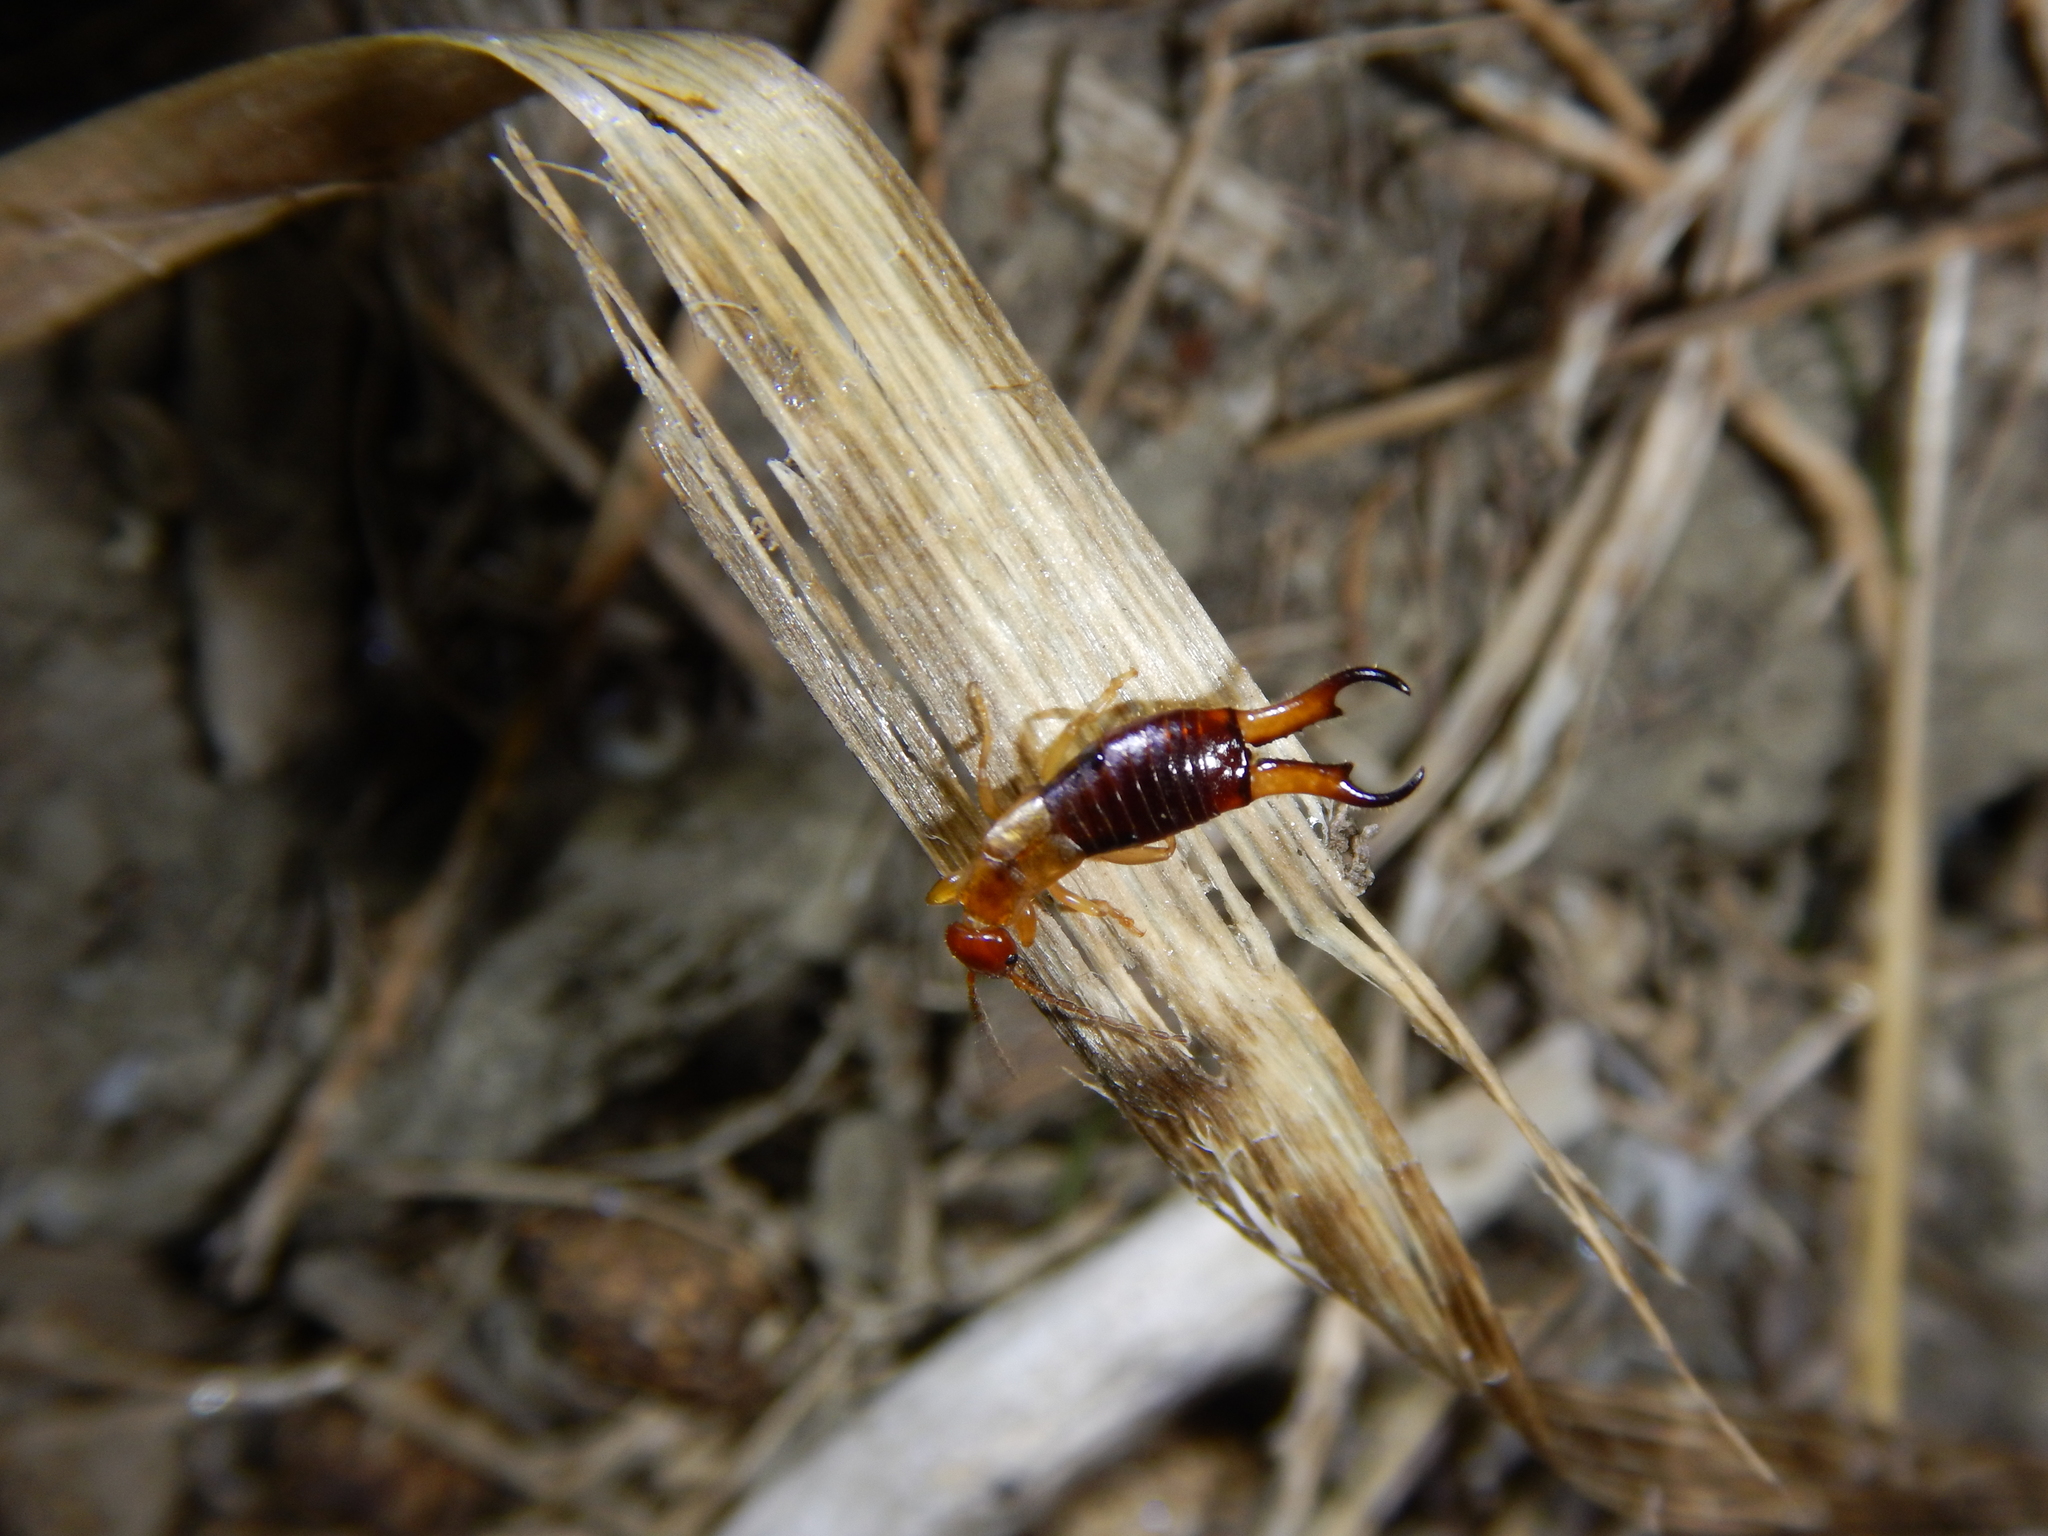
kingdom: Animalia
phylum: Arthropoda
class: Insecta
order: Dermaptera
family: Forficulidae
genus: Guanchia
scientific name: Guanchia pubescens
